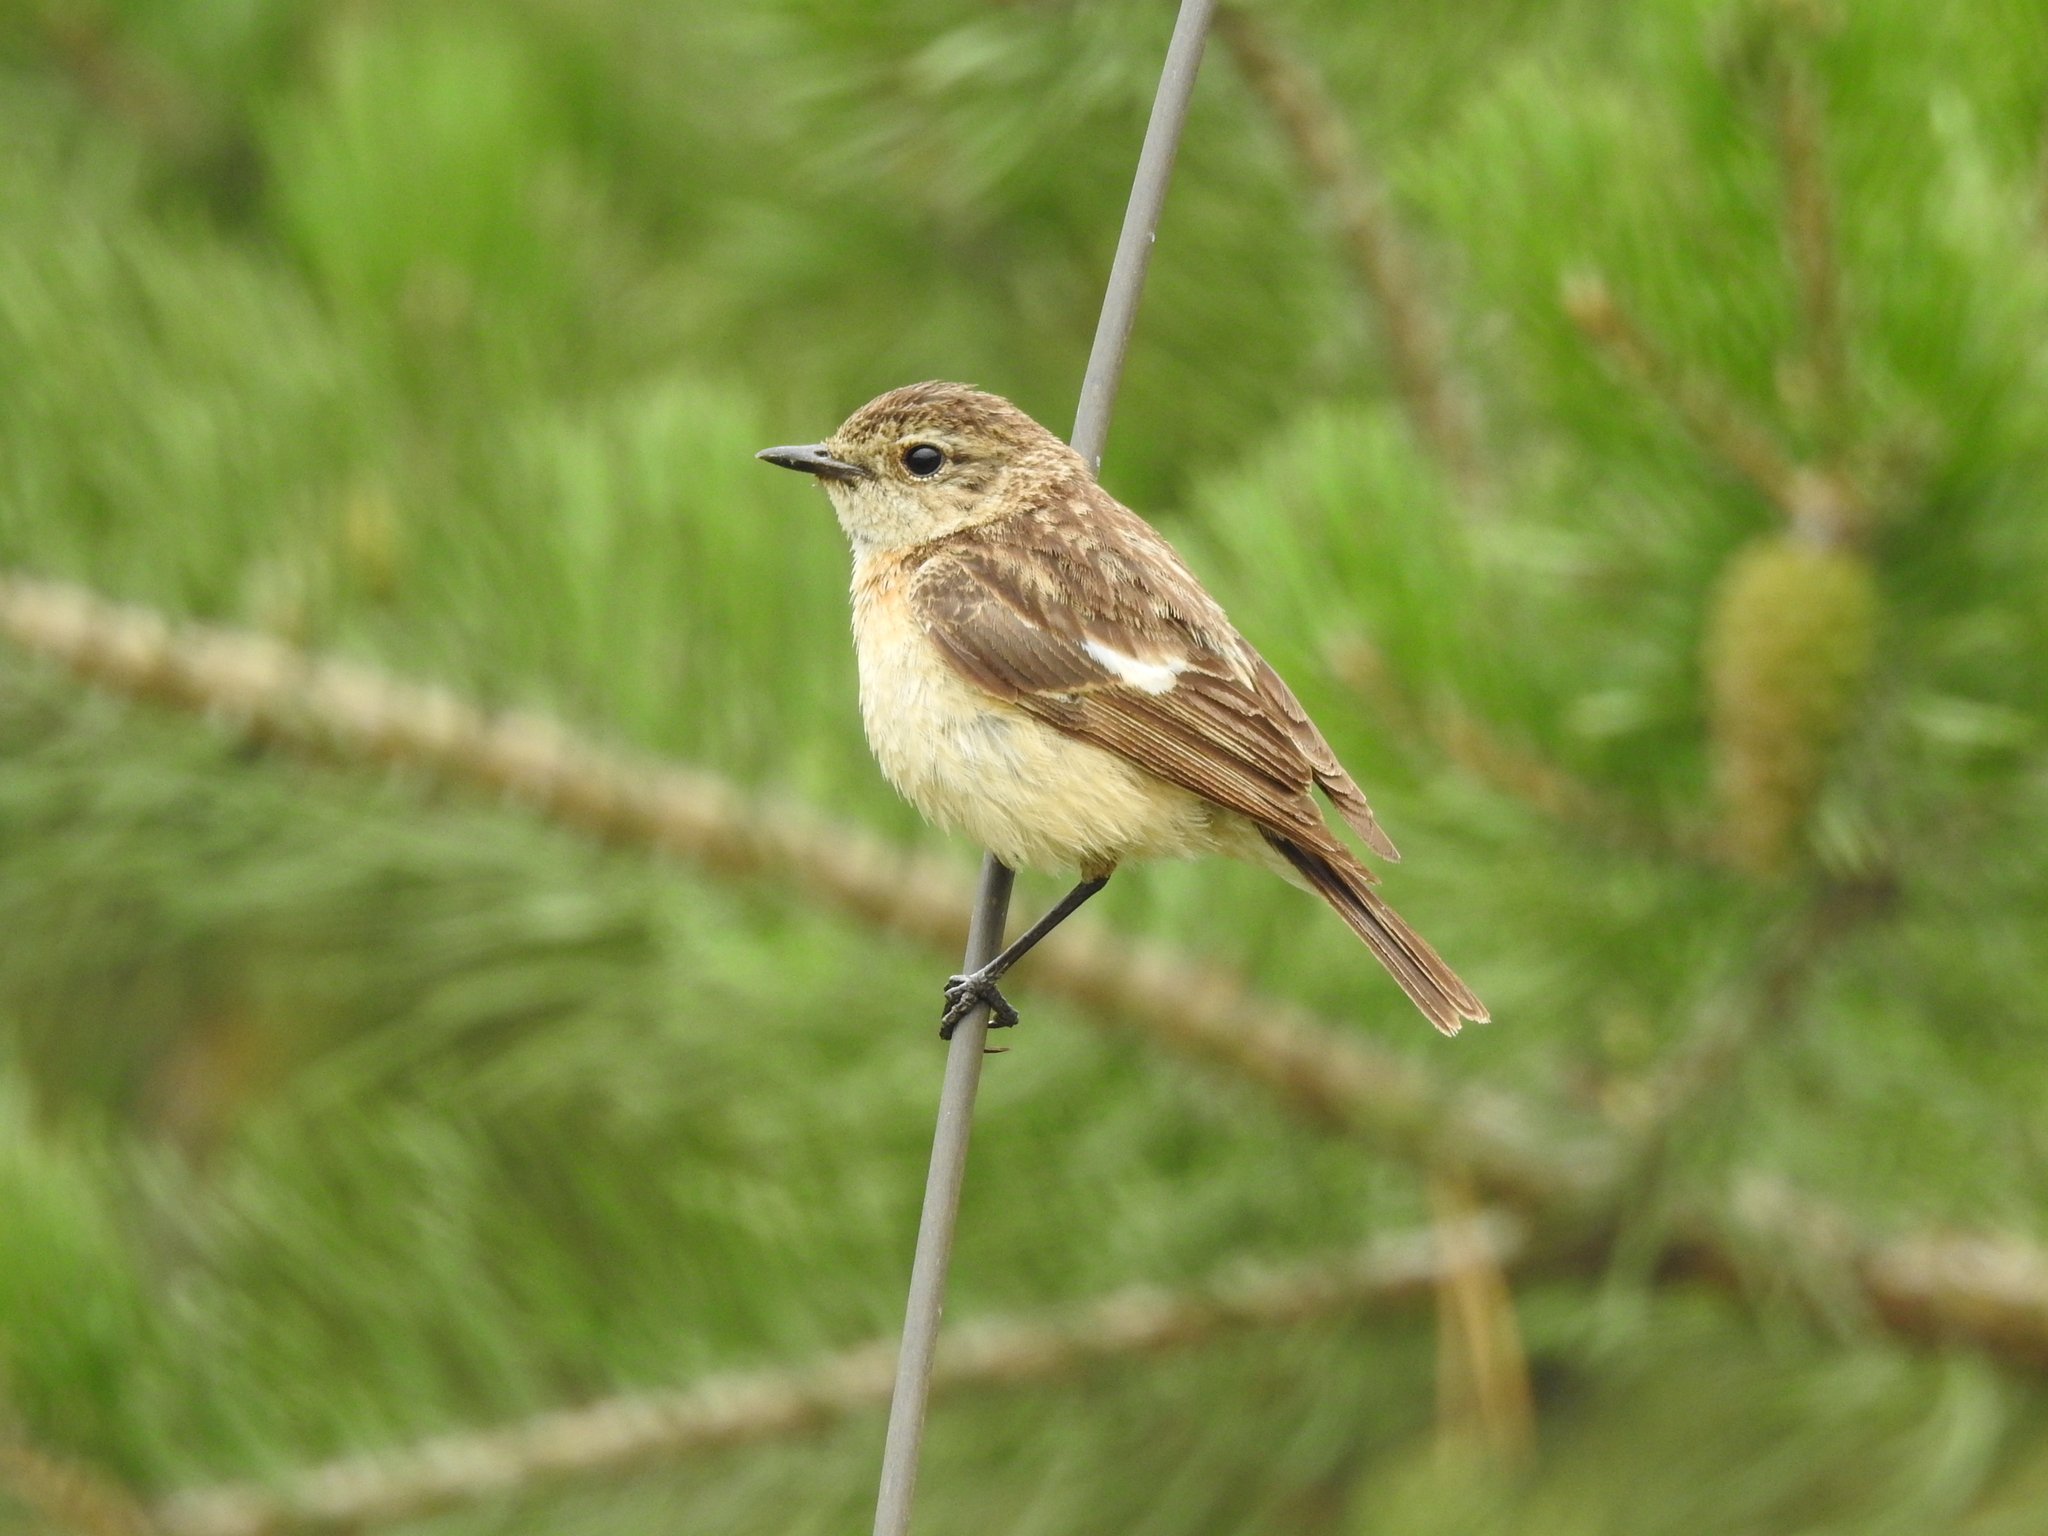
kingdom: Animalia
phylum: Chordata
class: Aves
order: Passeriformes
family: Muscicapidae
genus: Saxicola
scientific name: Saxicola maurus
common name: Siberian stonechat
